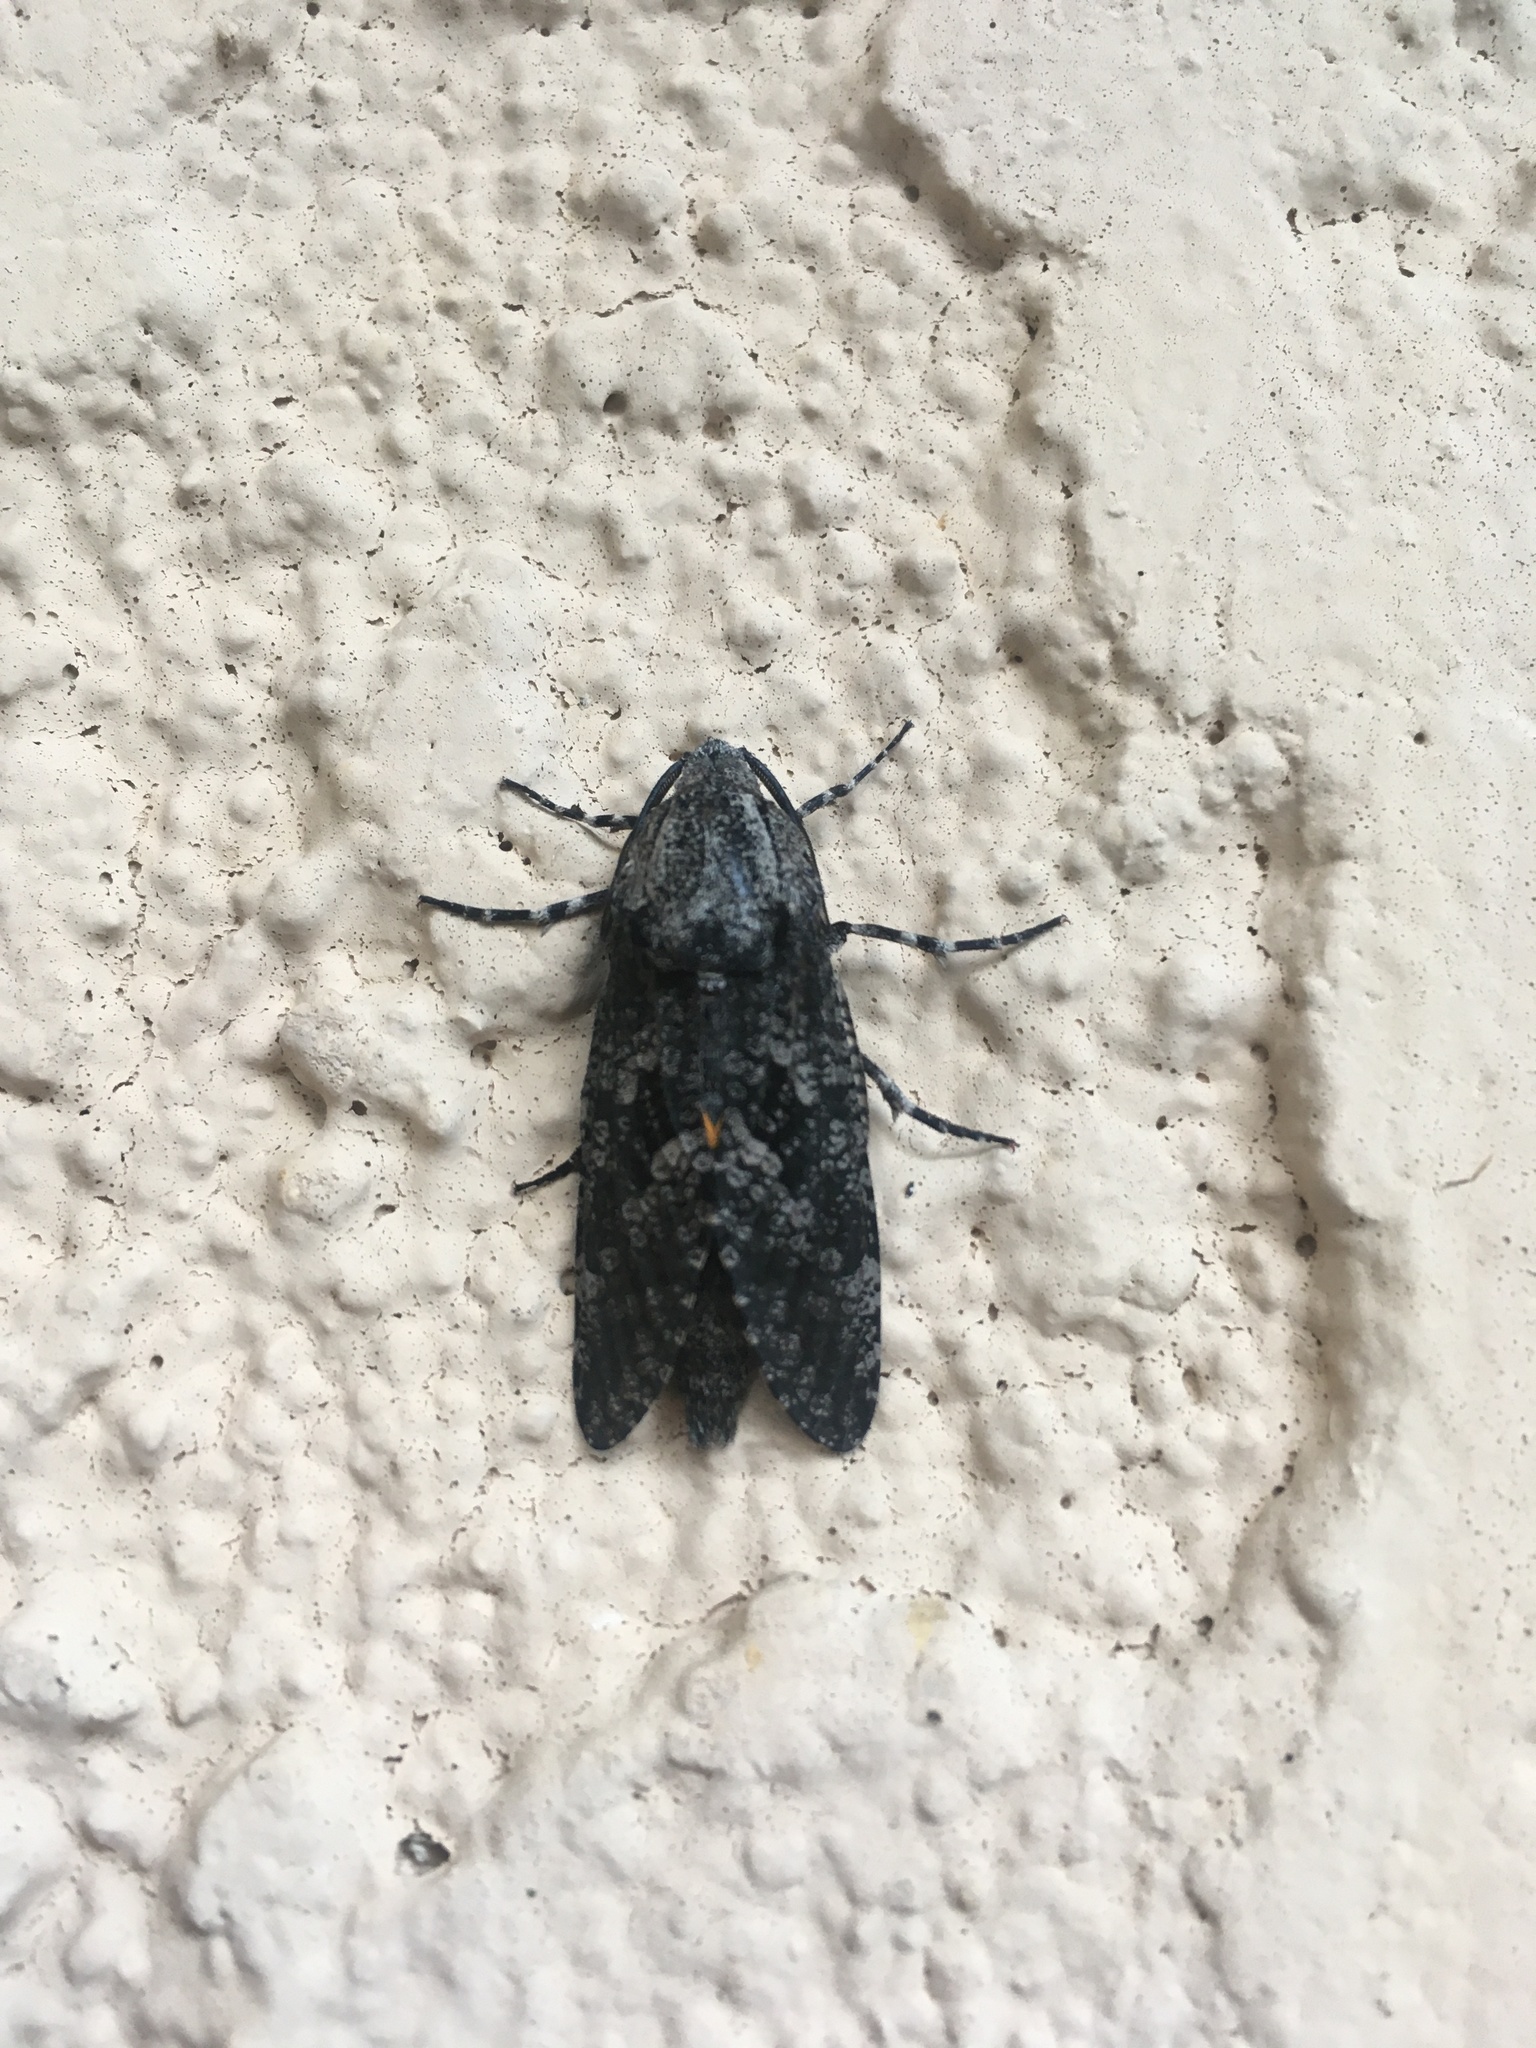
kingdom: Animalia
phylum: Arthropoda
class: Insecta
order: Lepidoptera
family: Cossidae
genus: Prionoxystus
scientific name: Prionoxystus robiniae
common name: Carpenterworm
